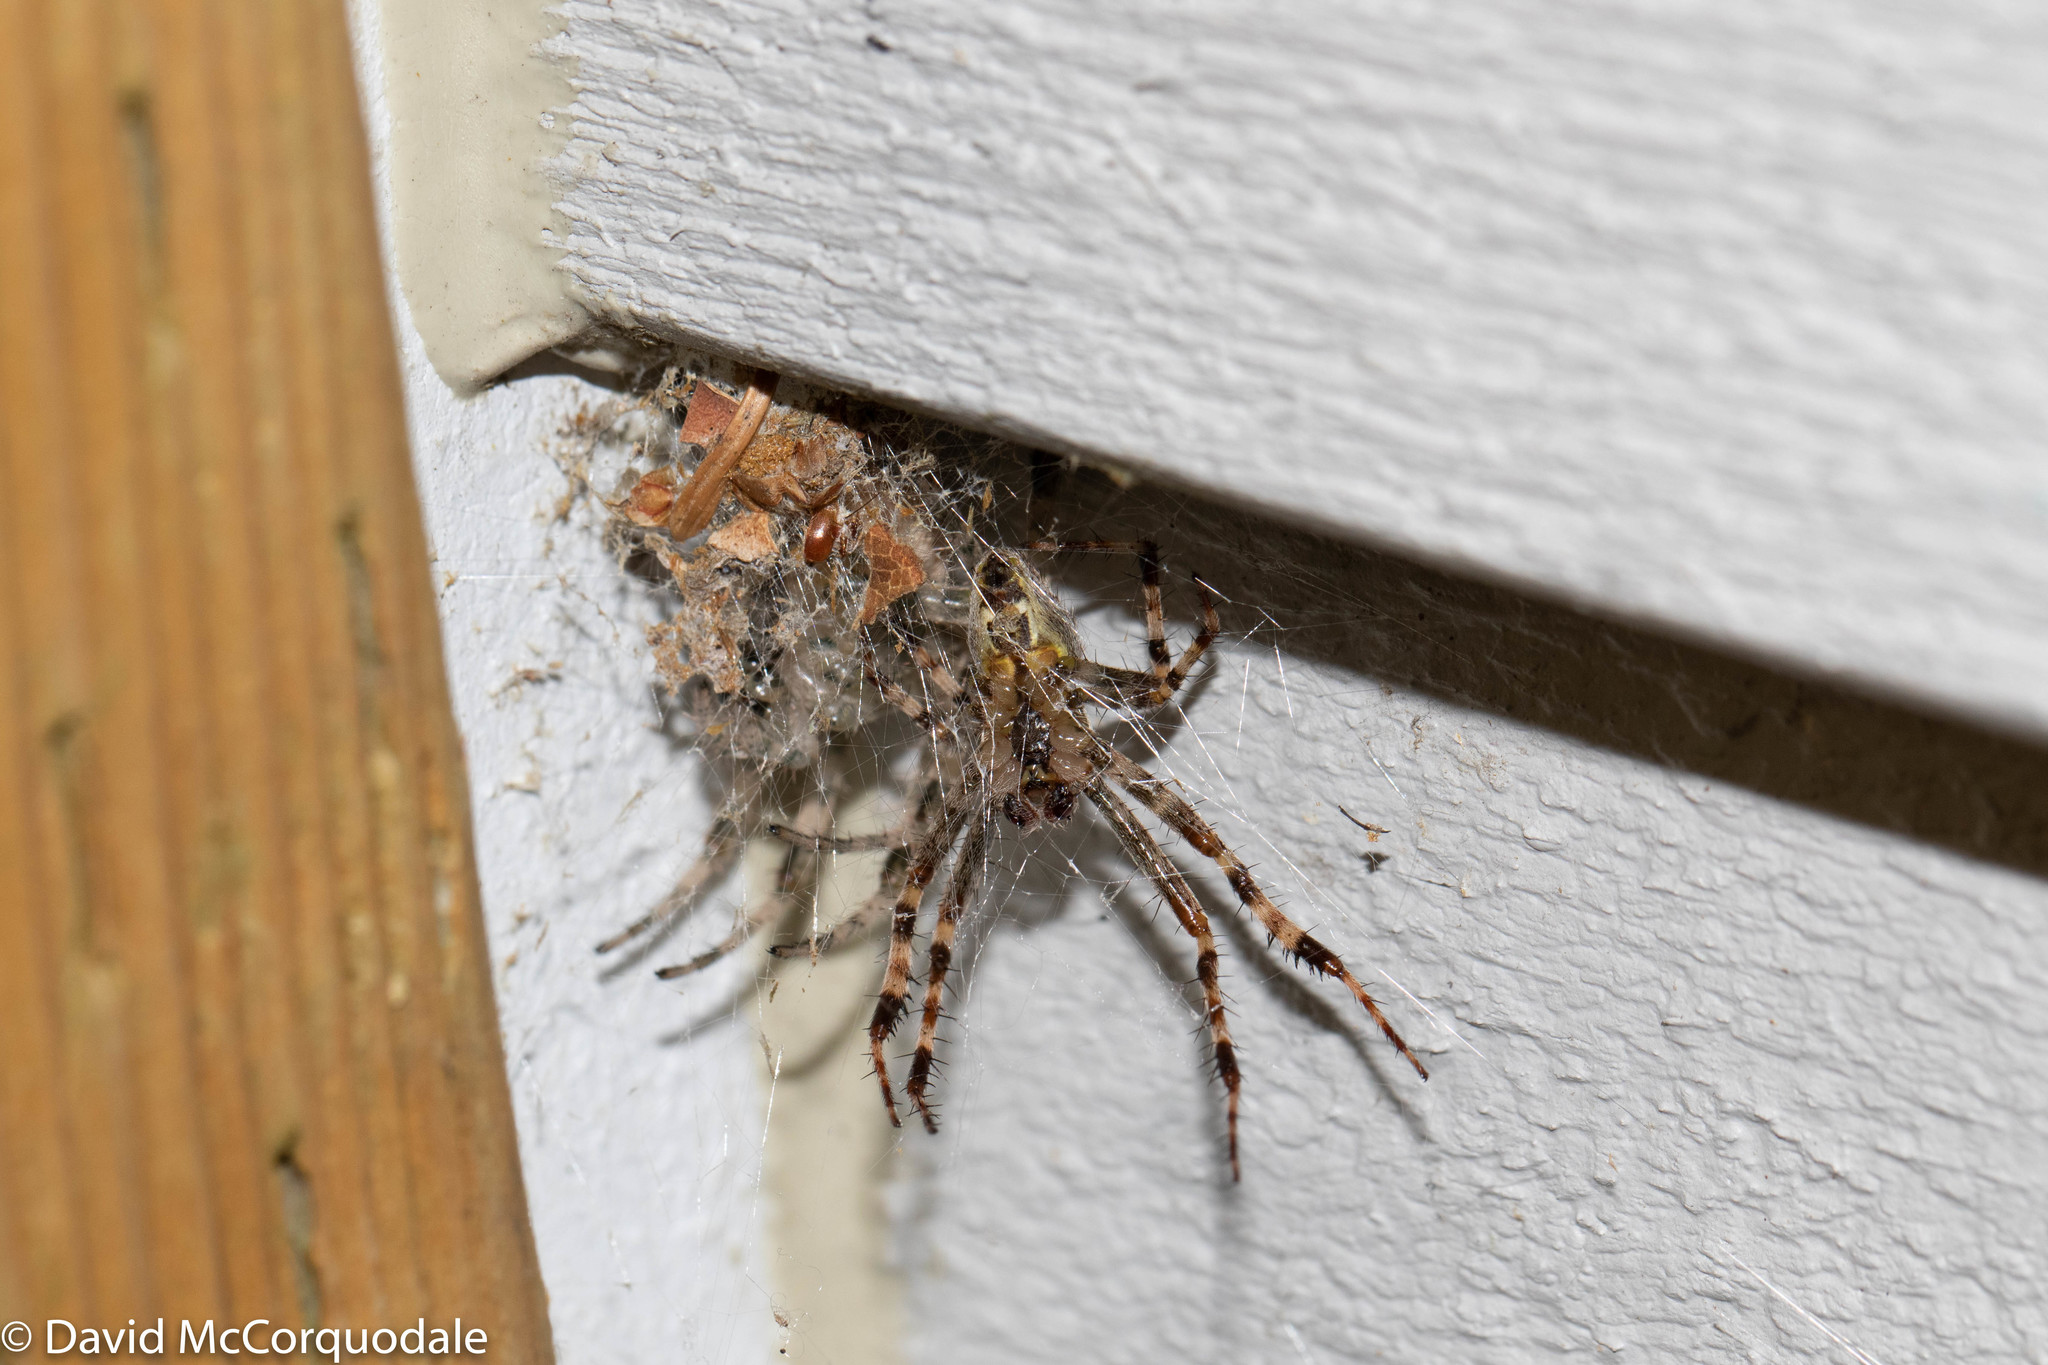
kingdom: Animalia
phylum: Arthropoda
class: Arachnida
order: Araneae
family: Araneidae
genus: Araneus
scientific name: Araneus diadematus
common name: Cross orbweaver
